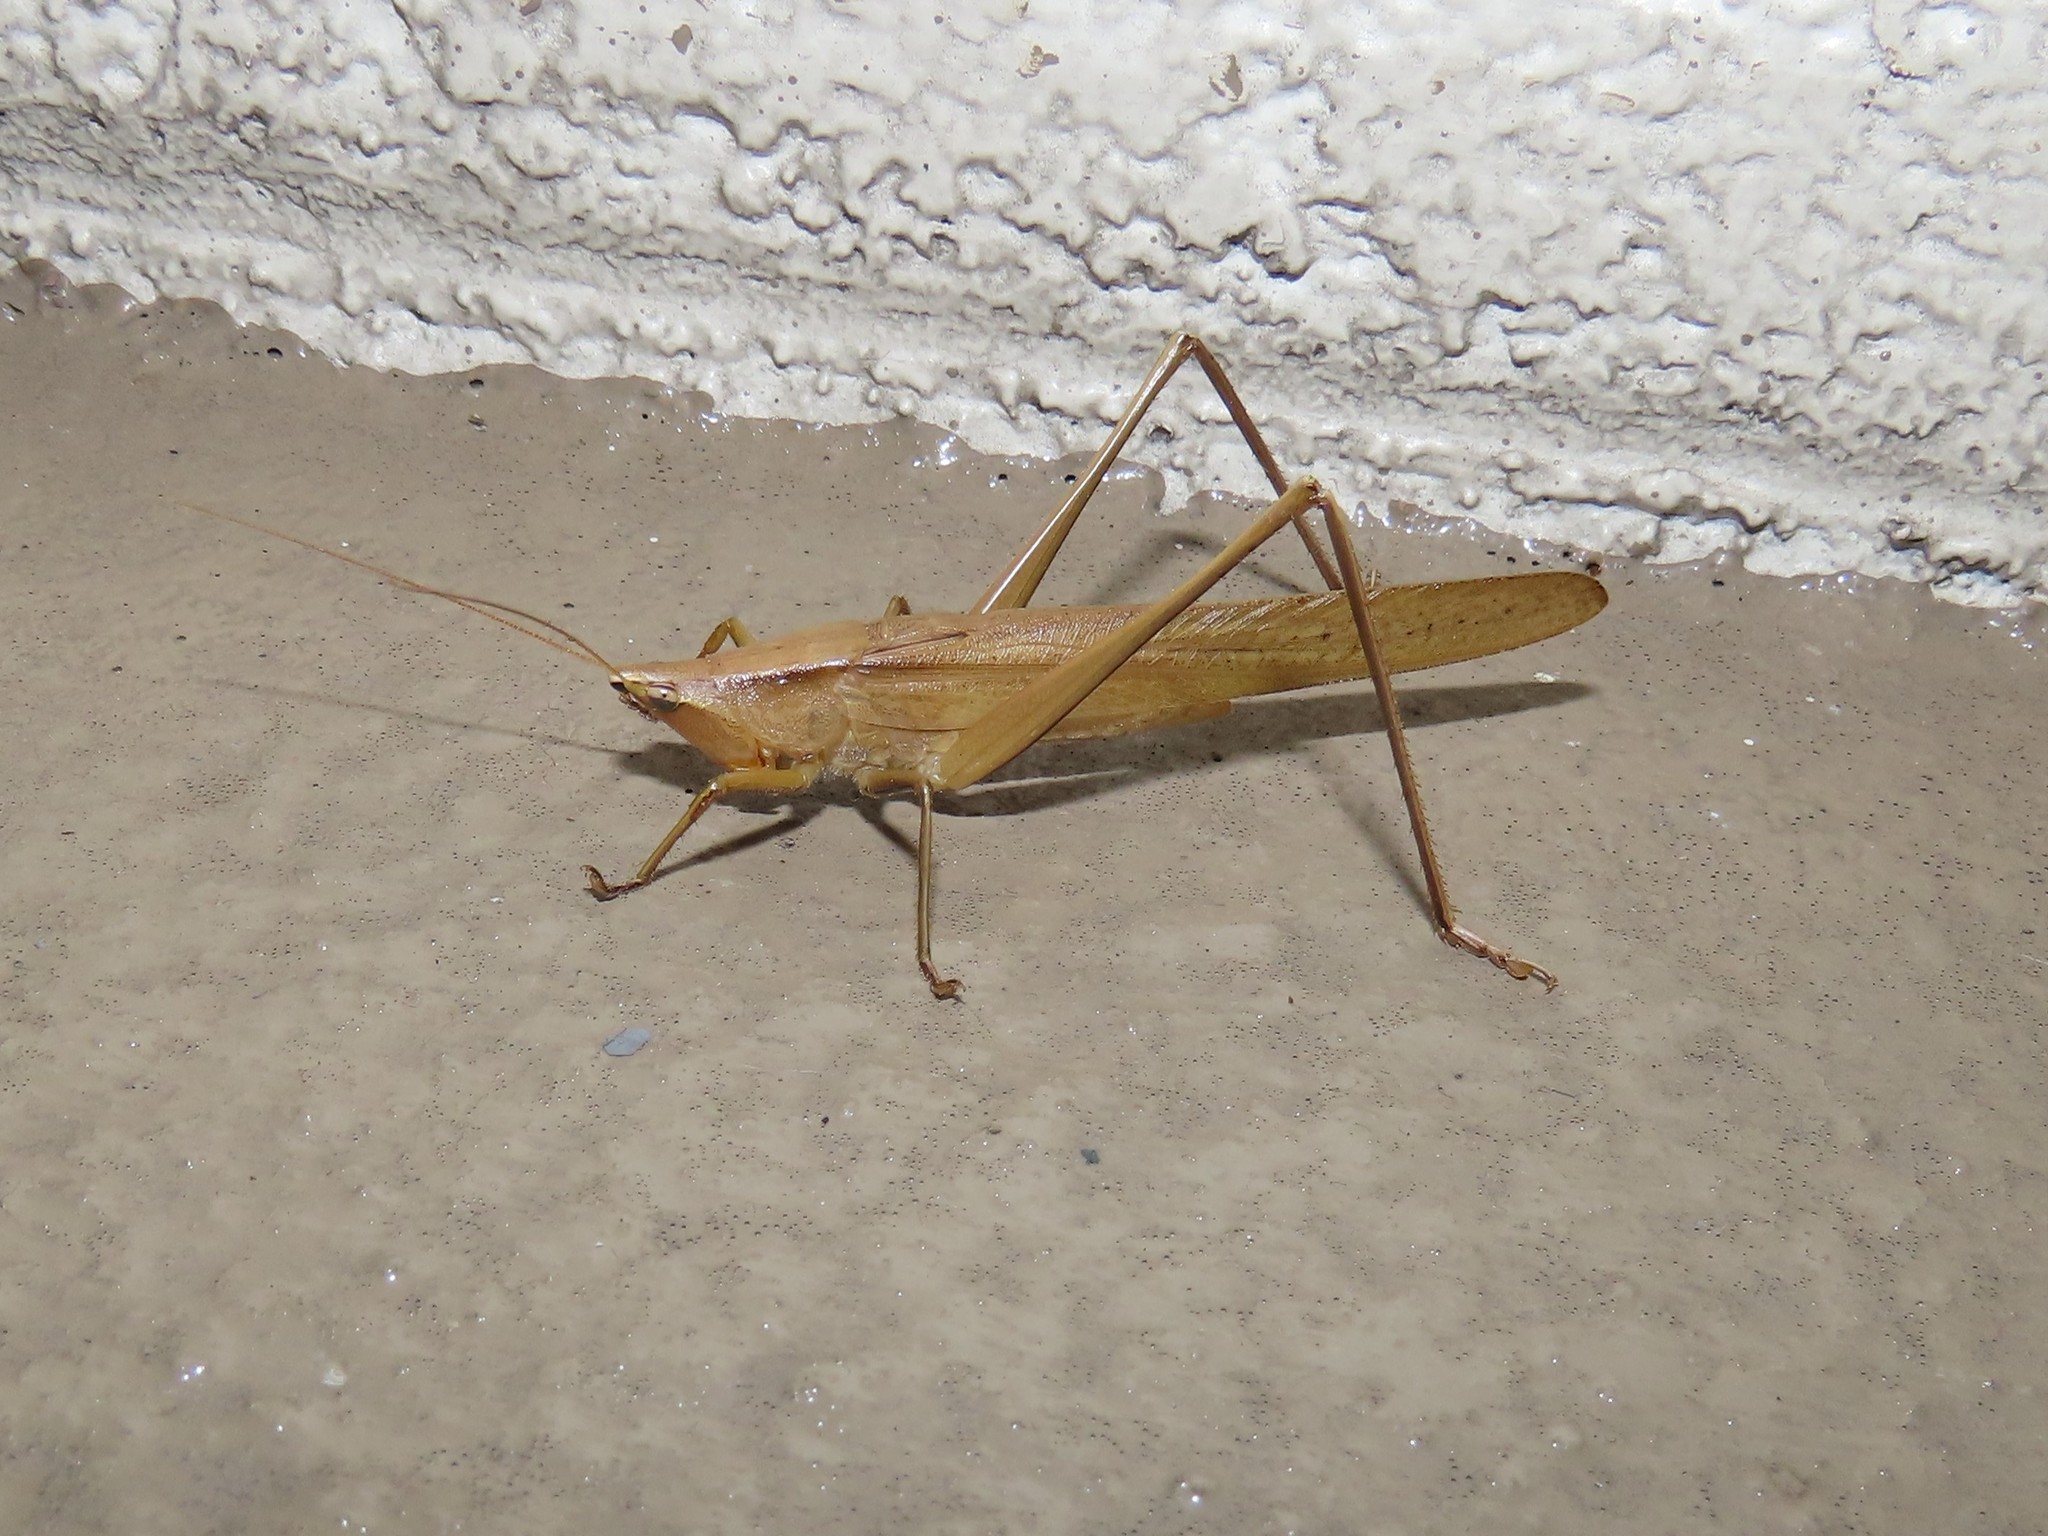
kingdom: Animalia
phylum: Arthropoda
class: Insecta
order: Orthoptera
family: Tettigoniidae
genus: Neoconocephalus
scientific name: Neoconocephalus triops
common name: Broad-tipped conehead
